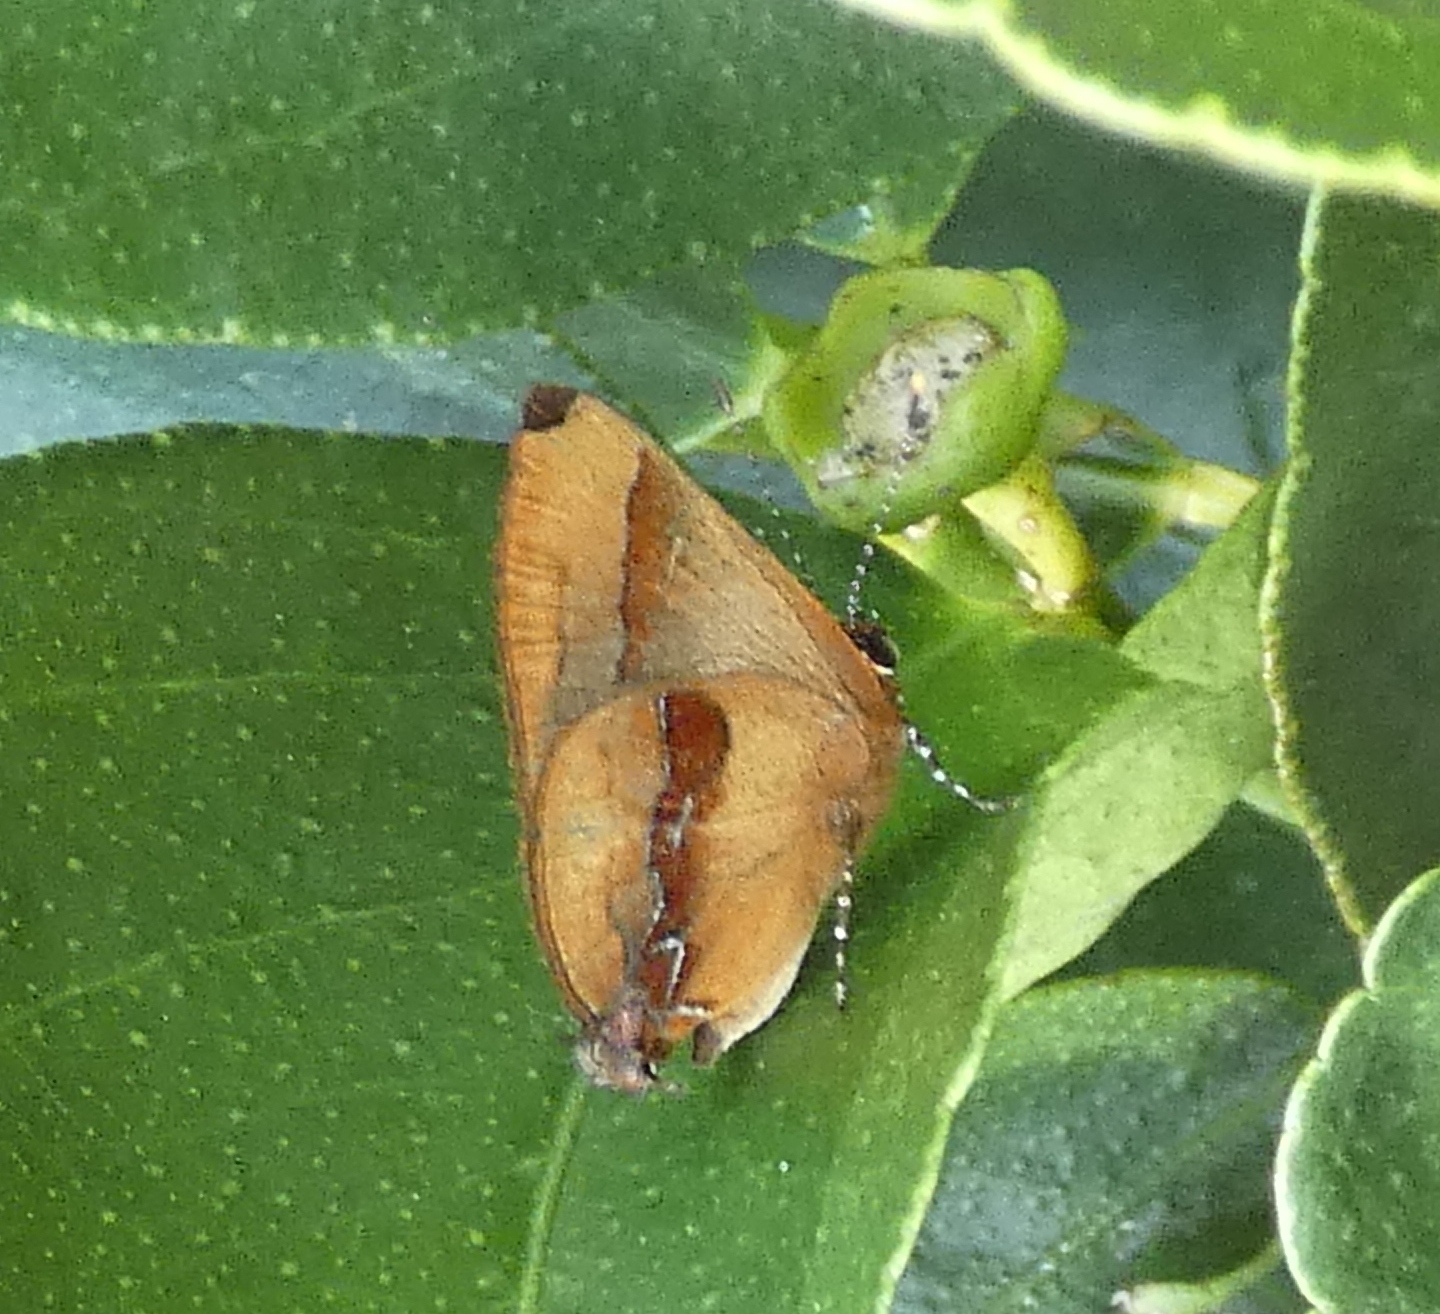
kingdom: Animalia
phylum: Arthropoda
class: Insecta
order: Lepidoptera
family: Lycaenidae
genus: Thecla
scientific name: Thecla demonassa
